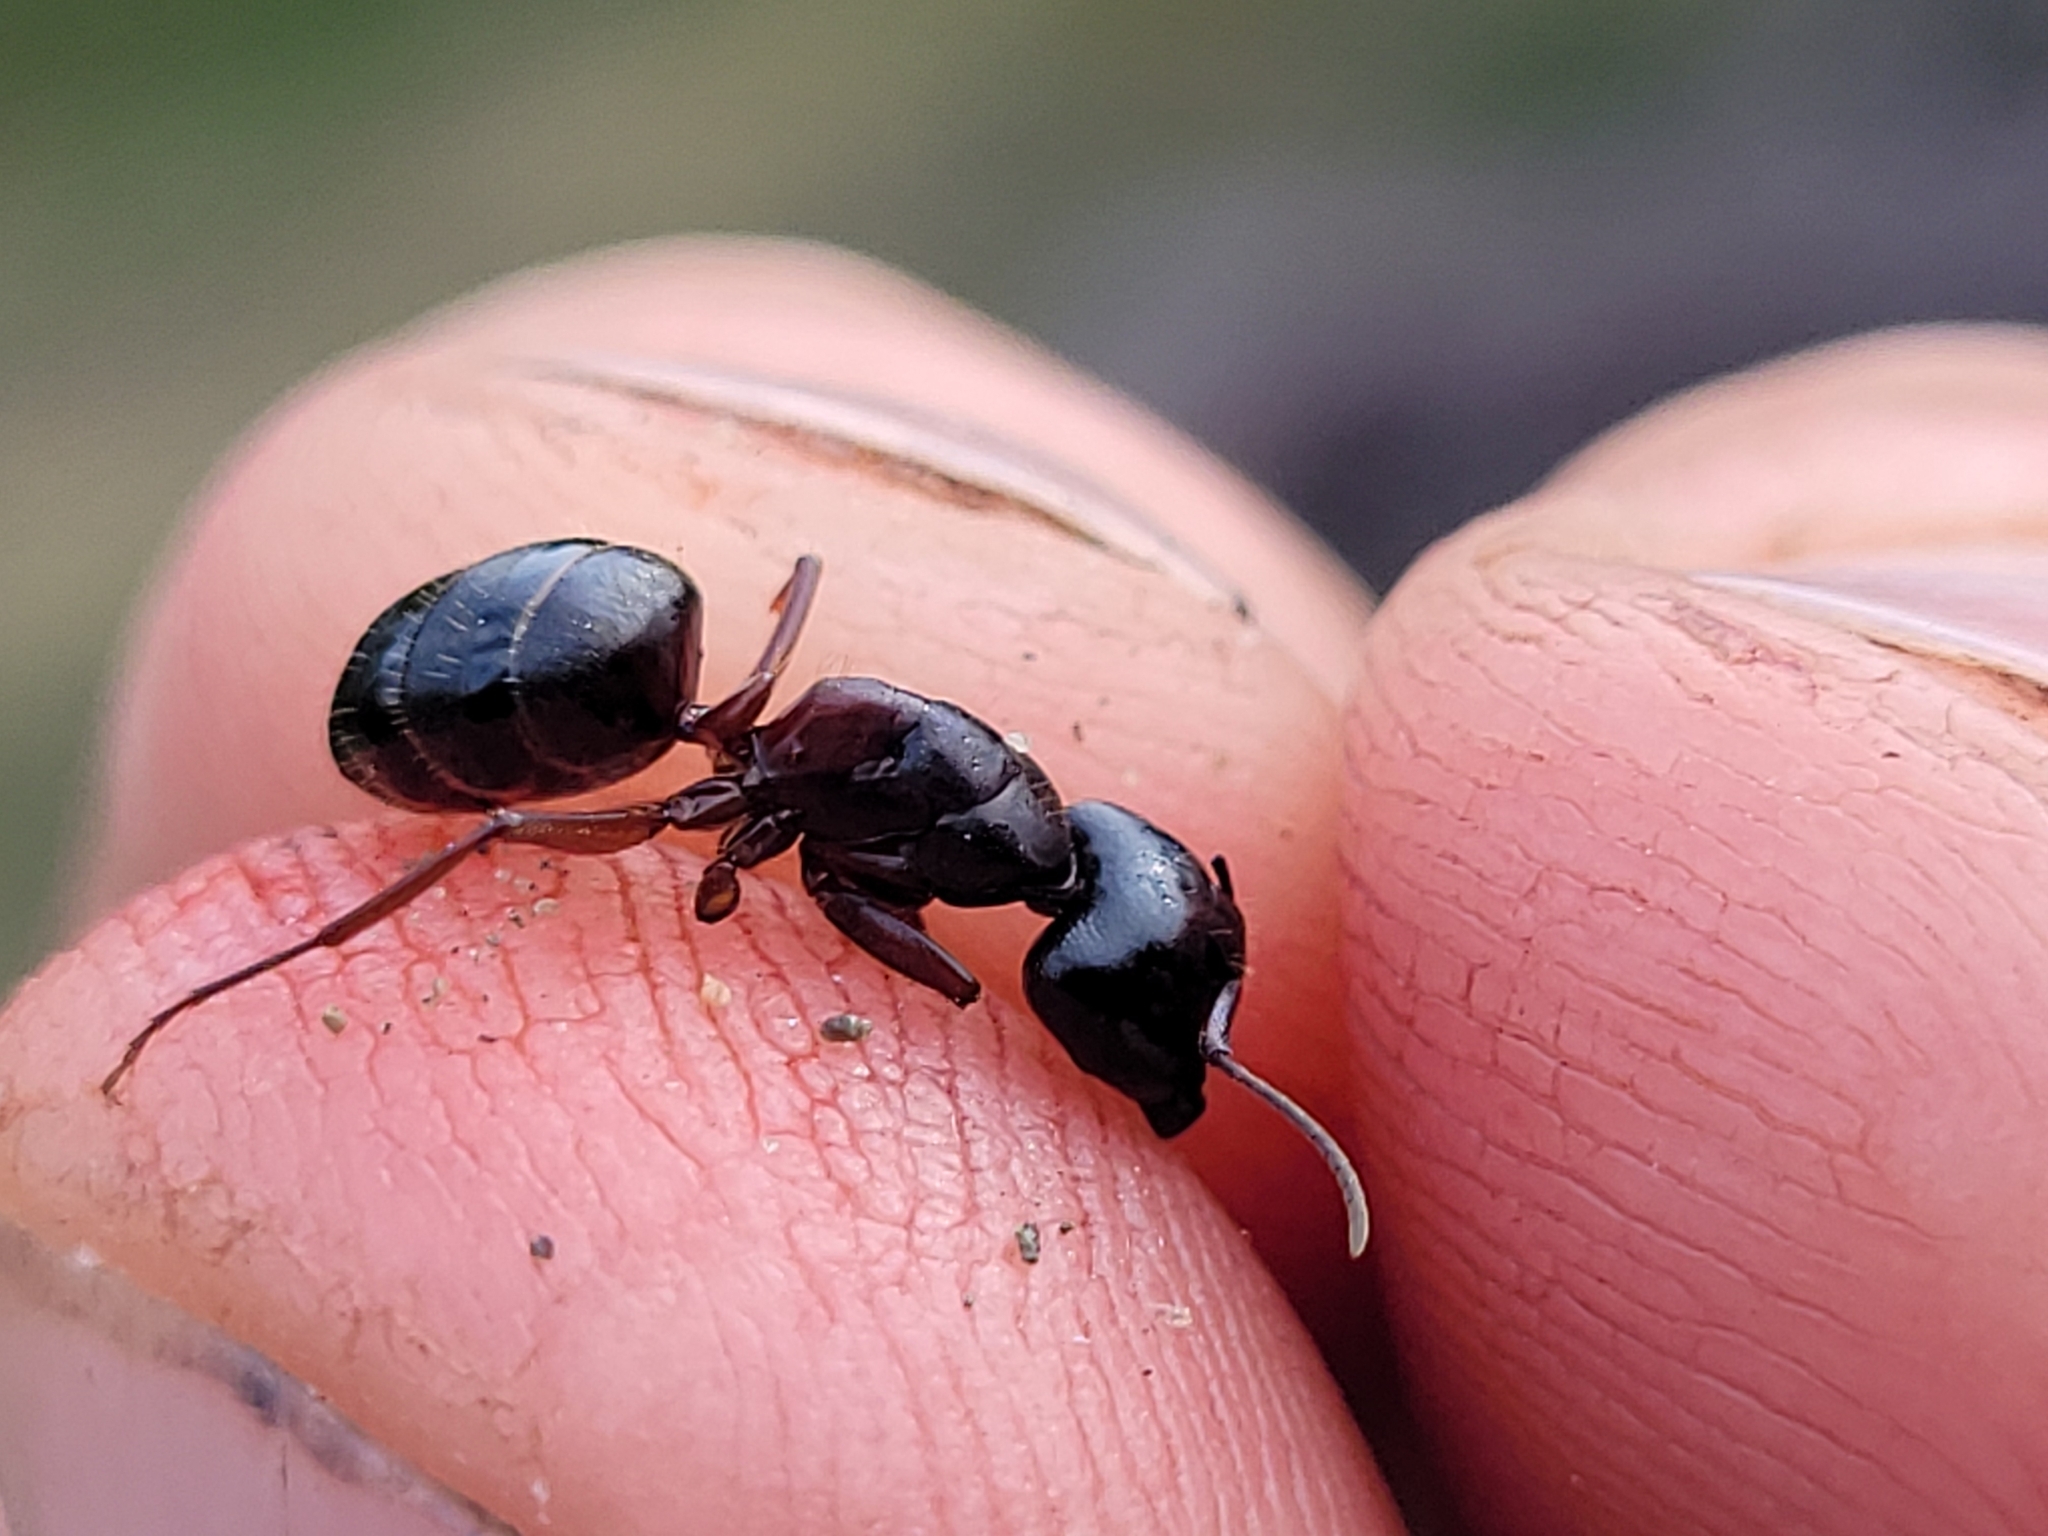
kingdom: Animalia
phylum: Arthropoda
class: Insecta
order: Hymenoptera
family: Formicidae
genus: Camponotus
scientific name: Camponotus herculeanus
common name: Hercules ant
